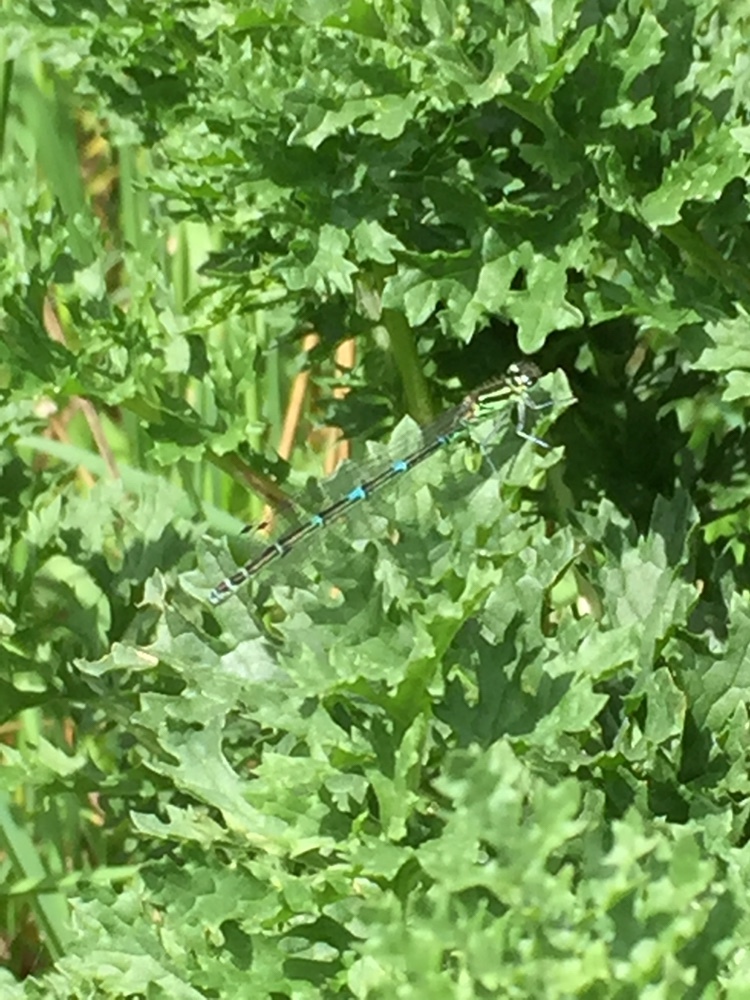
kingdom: Animalia
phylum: Arthropoda
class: Insecta
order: Odonata
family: Coenagrionidae
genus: Coenagrion
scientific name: Coenagrion puella
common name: Azure damselfly
